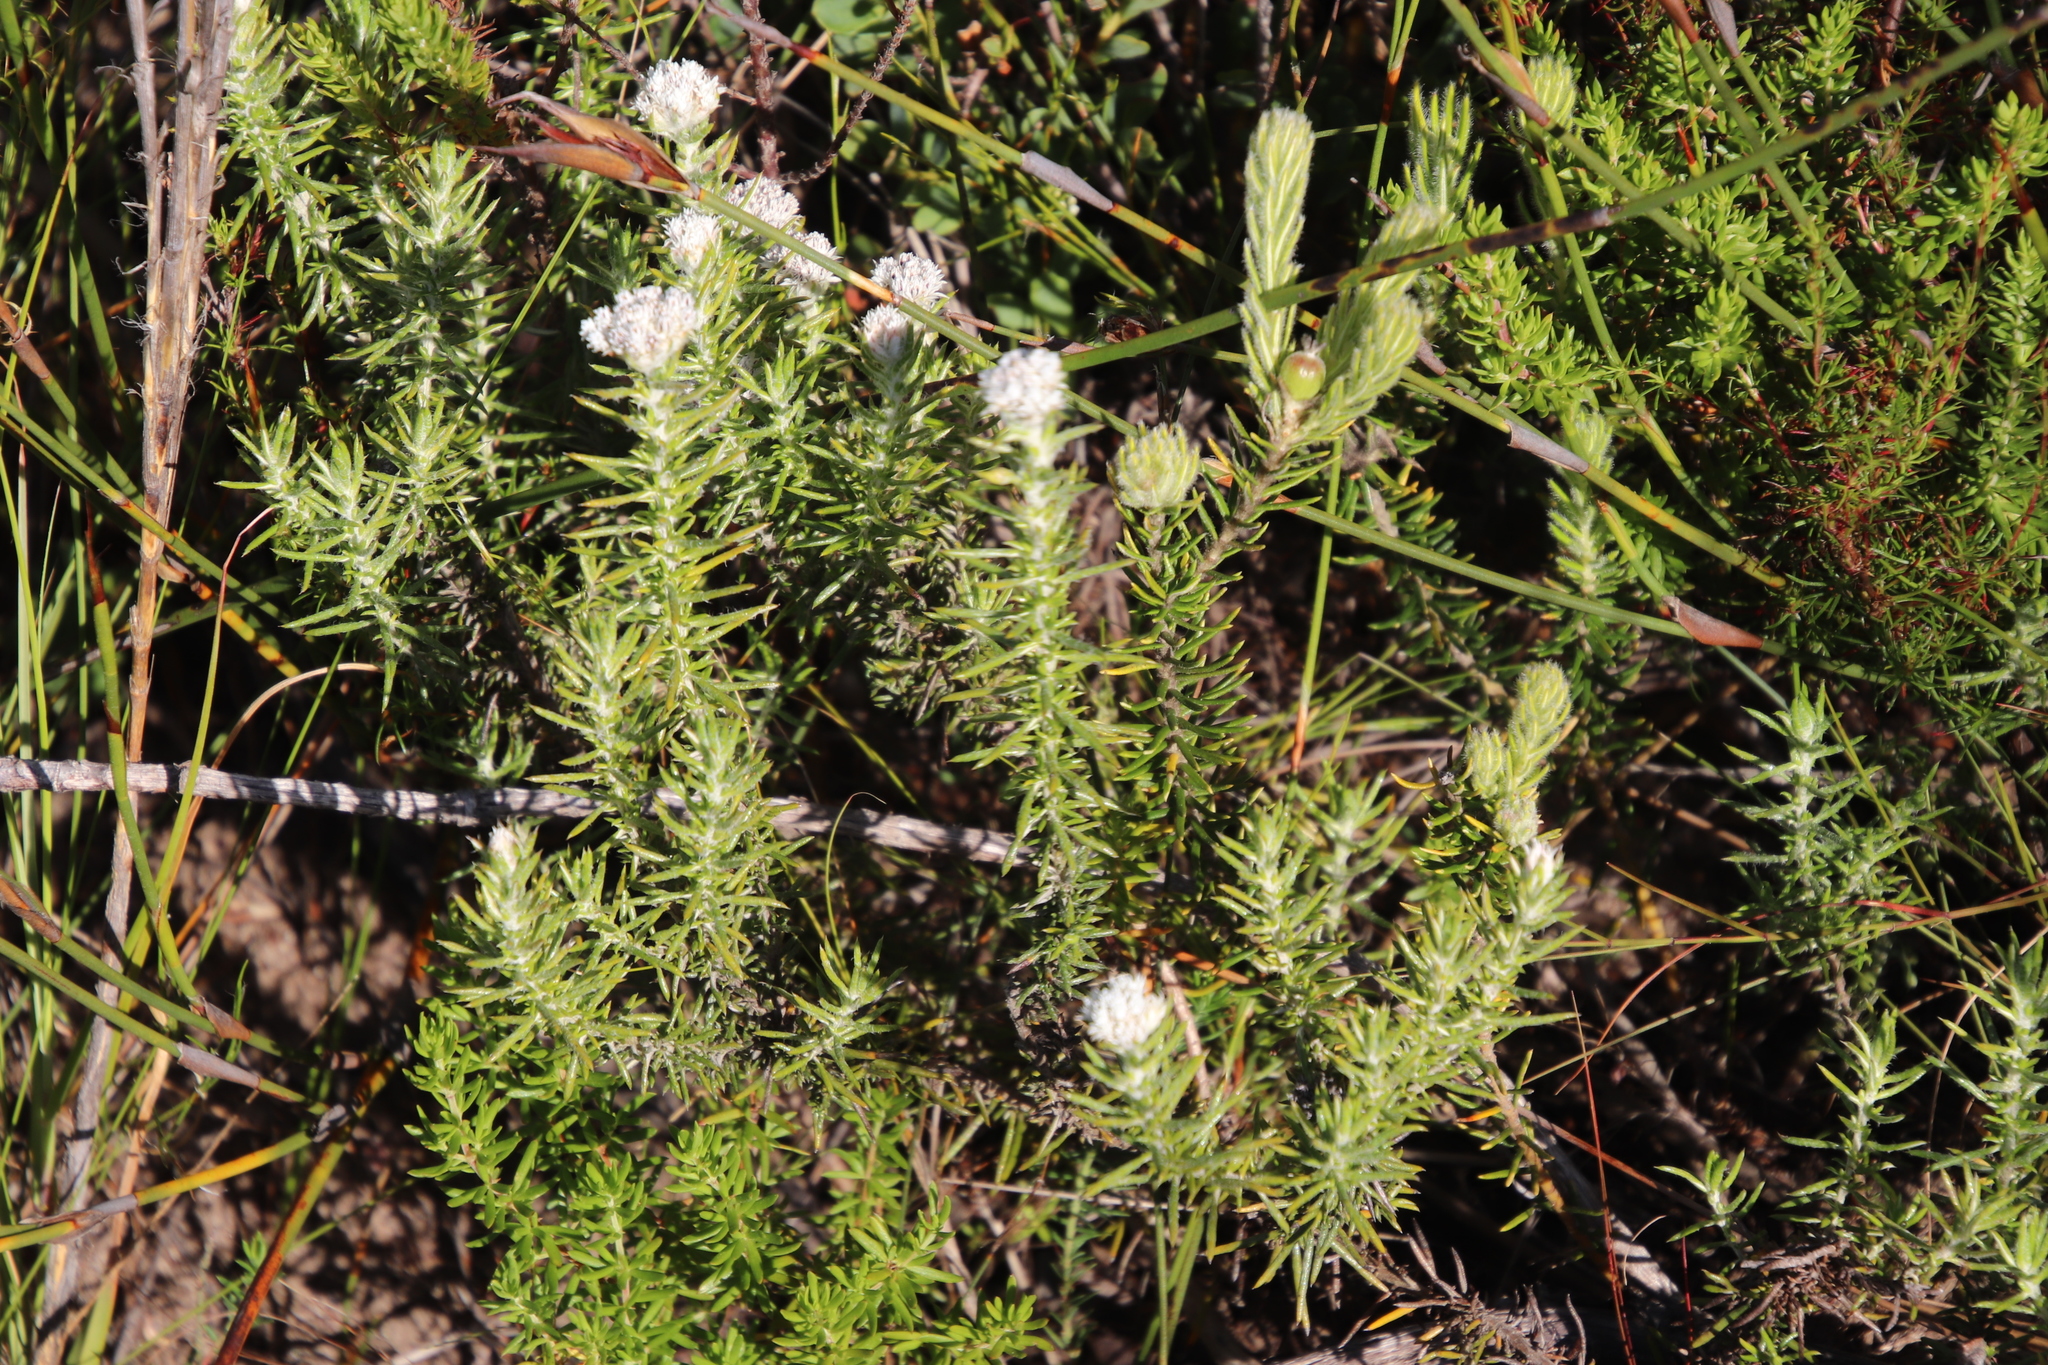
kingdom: Plantae
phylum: Tracheophyta
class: Magnoliopsida
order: Asterales
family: Asteraceae
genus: Metalasia
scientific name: Metalasia compacta
